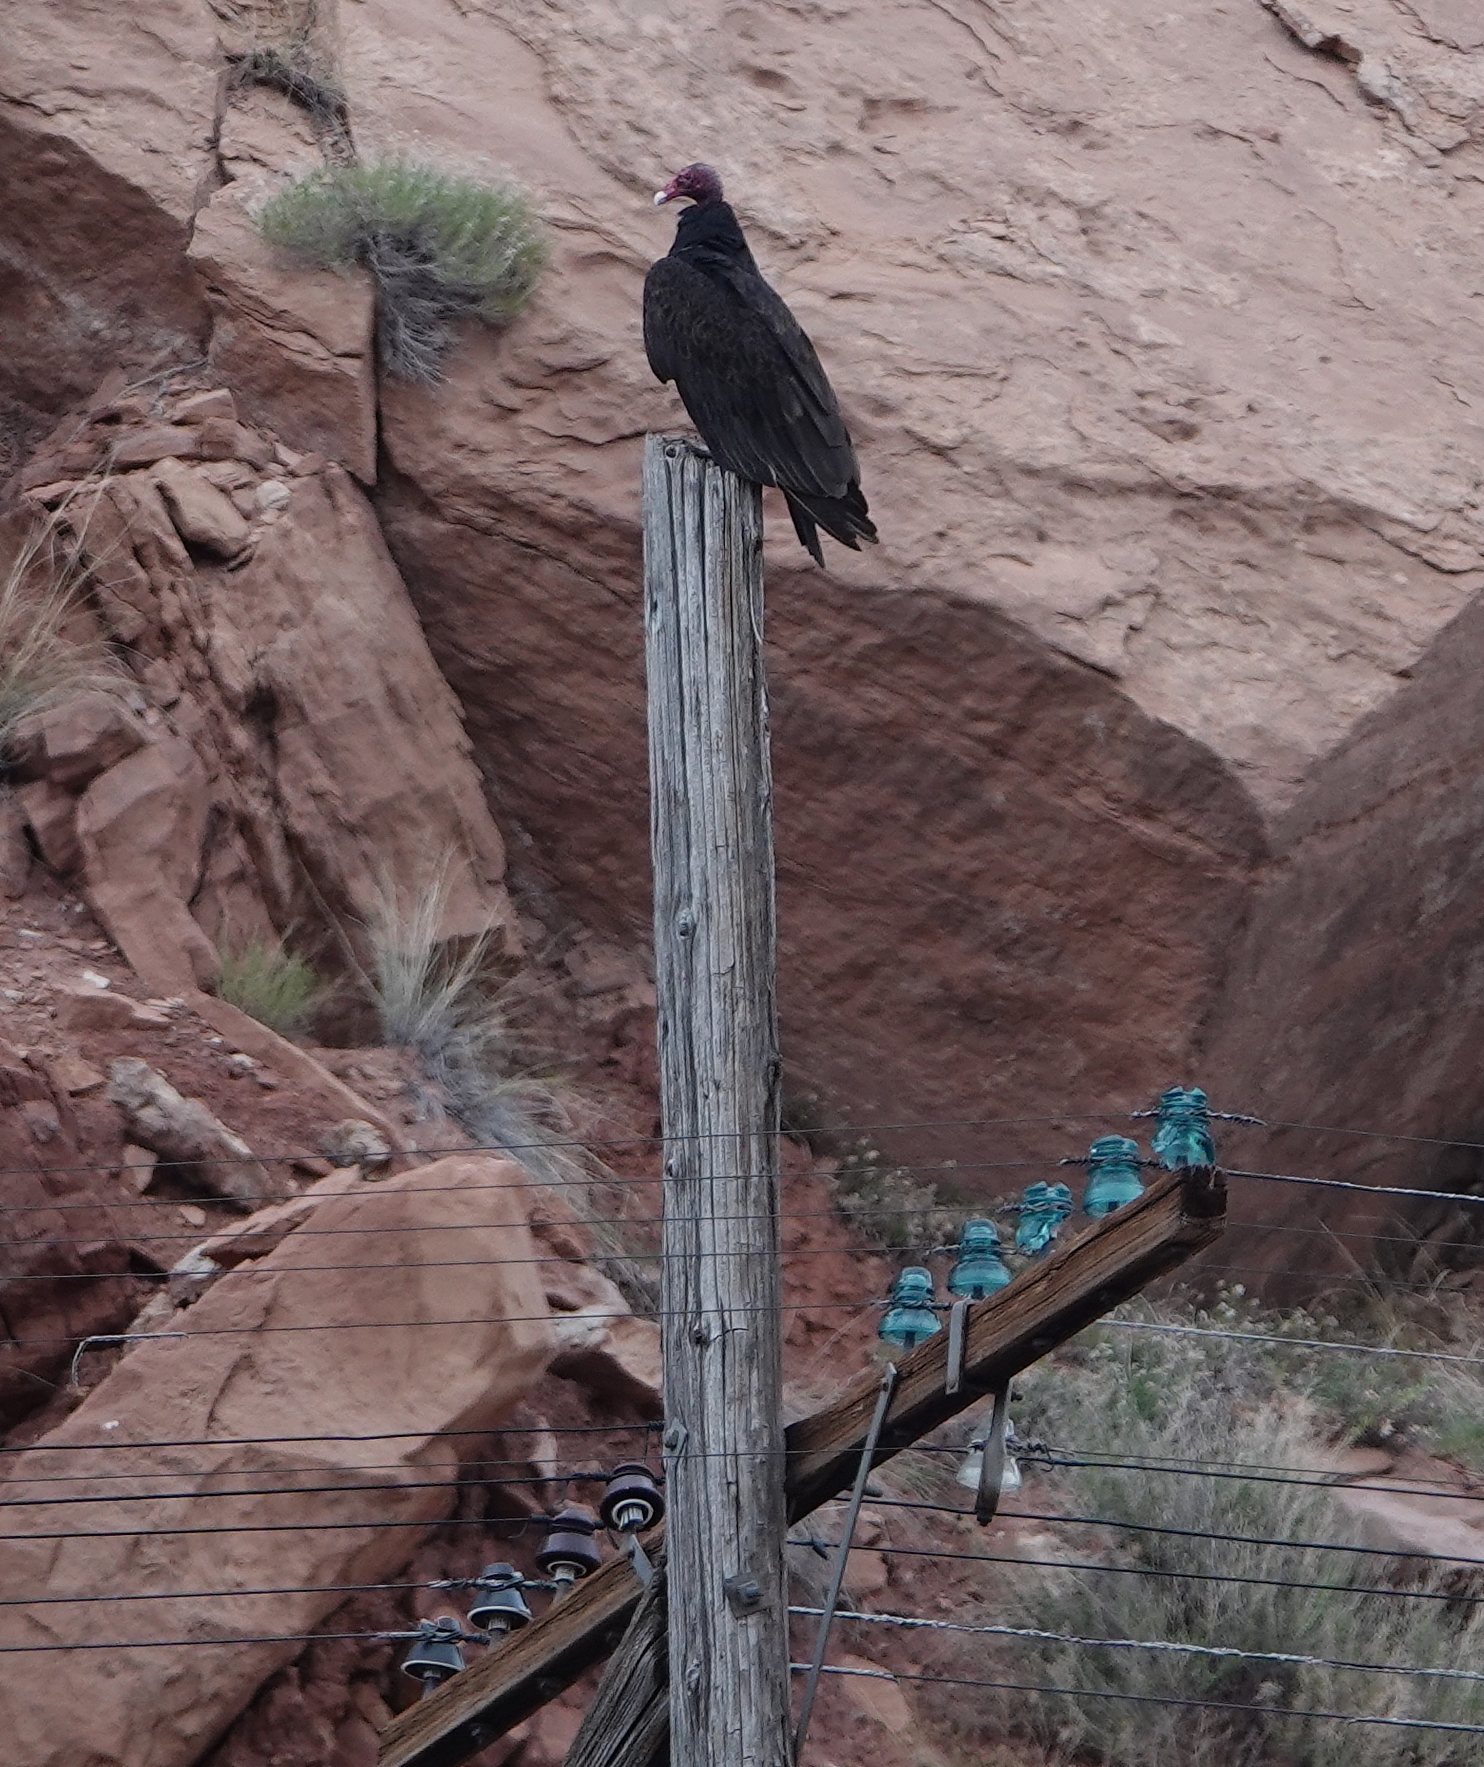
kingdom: Animalia
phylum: Chordata
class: Aves
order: Accipitriformes
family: Cathartidae
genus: Cathartes
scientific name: Cathartes aura
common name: Turkey vulture
